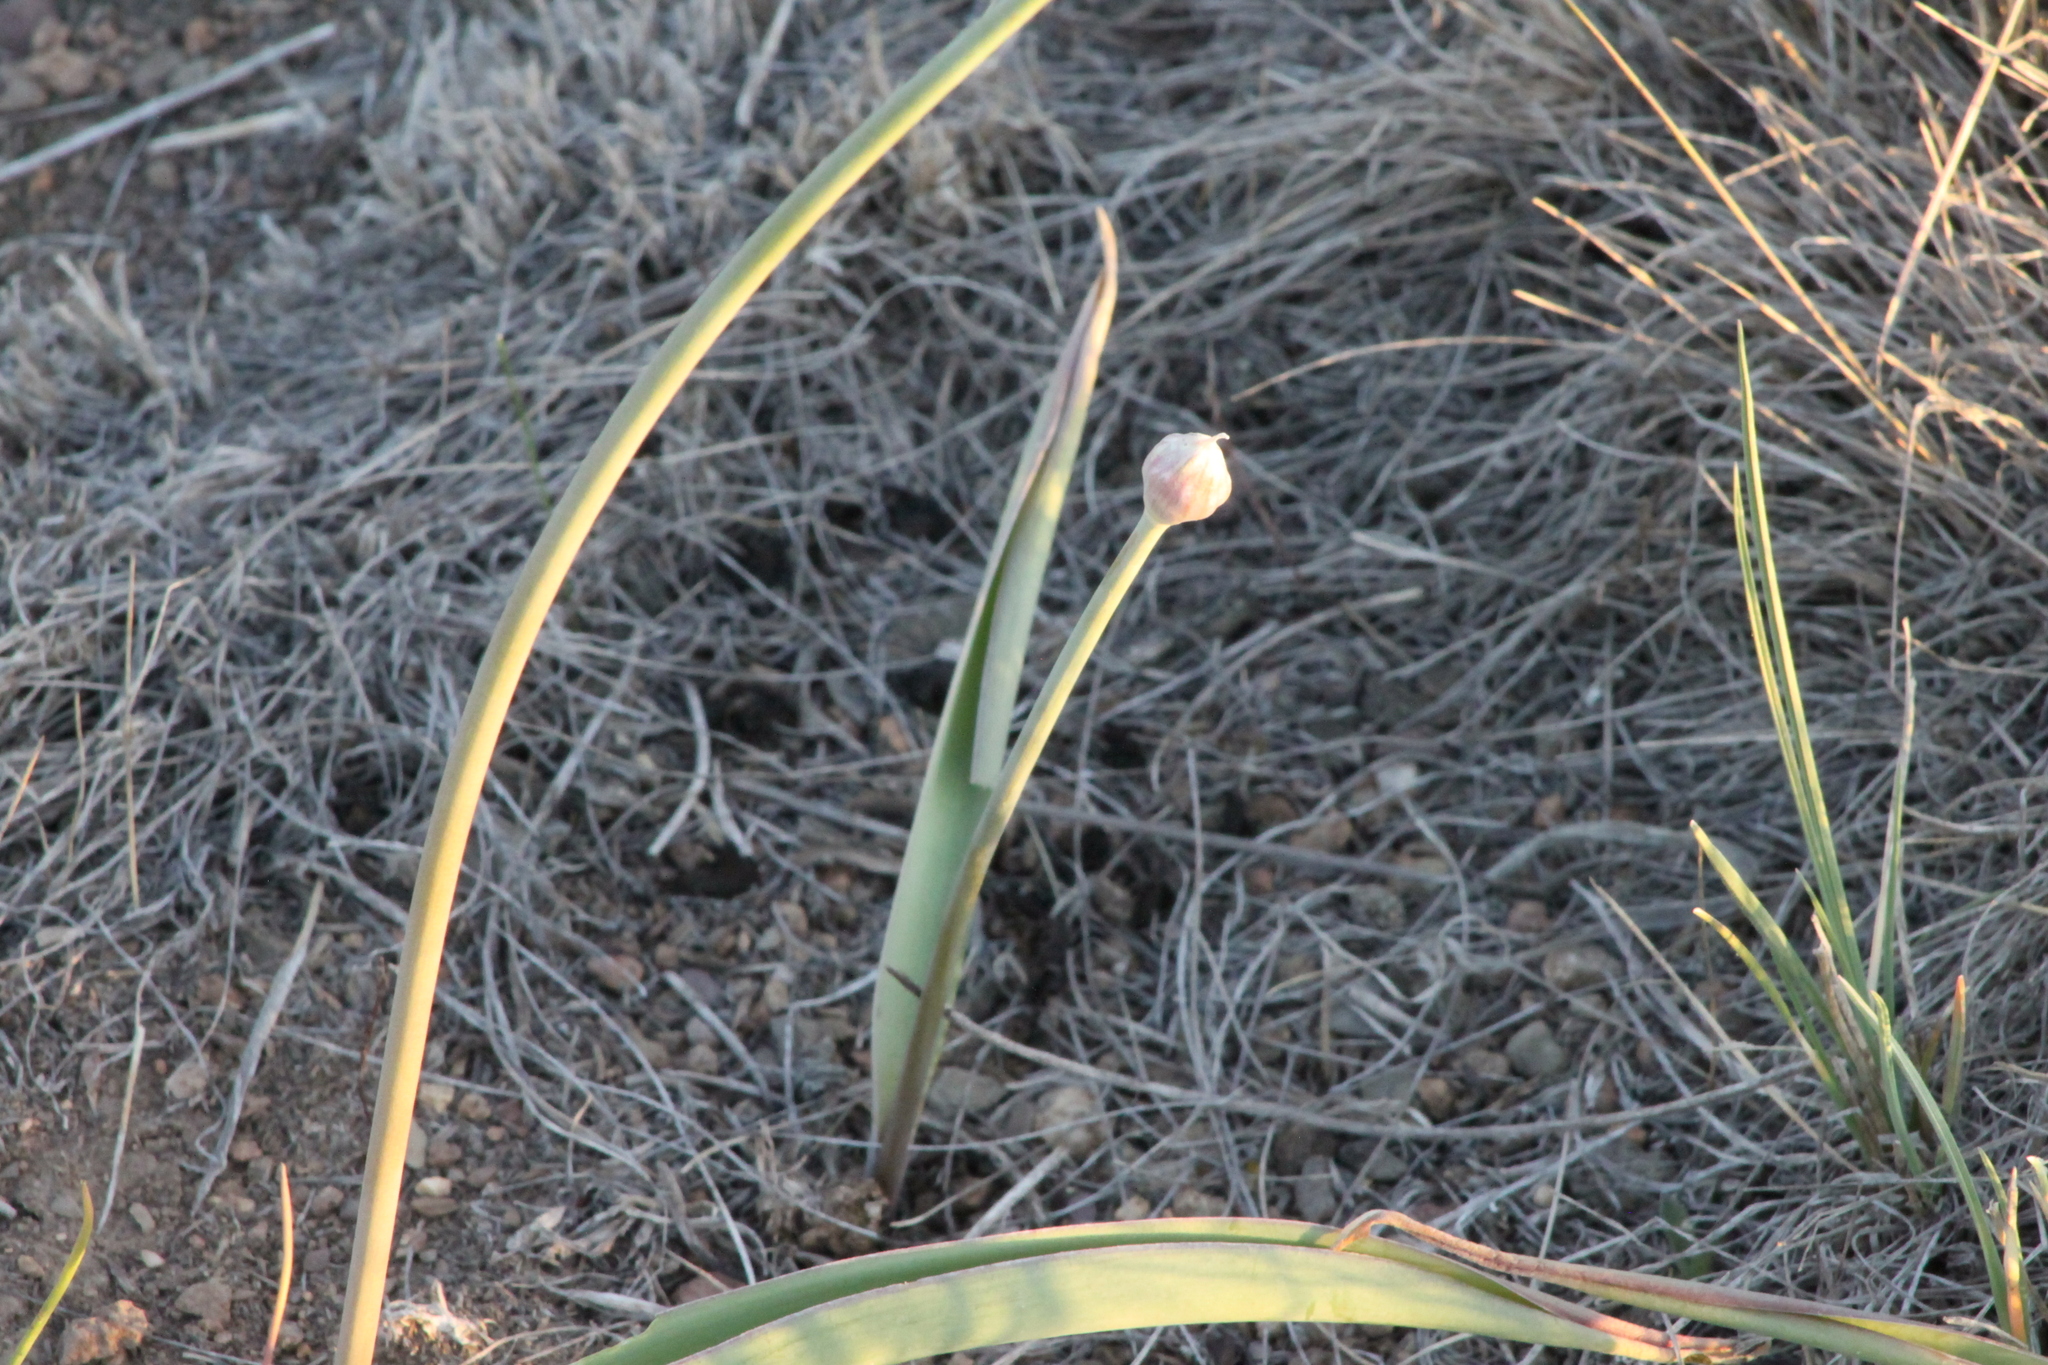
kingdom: Plantae
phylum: Tracheophyta
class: Liliopsida
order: Asparagales
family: Amaryllidaceae
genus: Allium
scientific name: Allium tulipifolium
